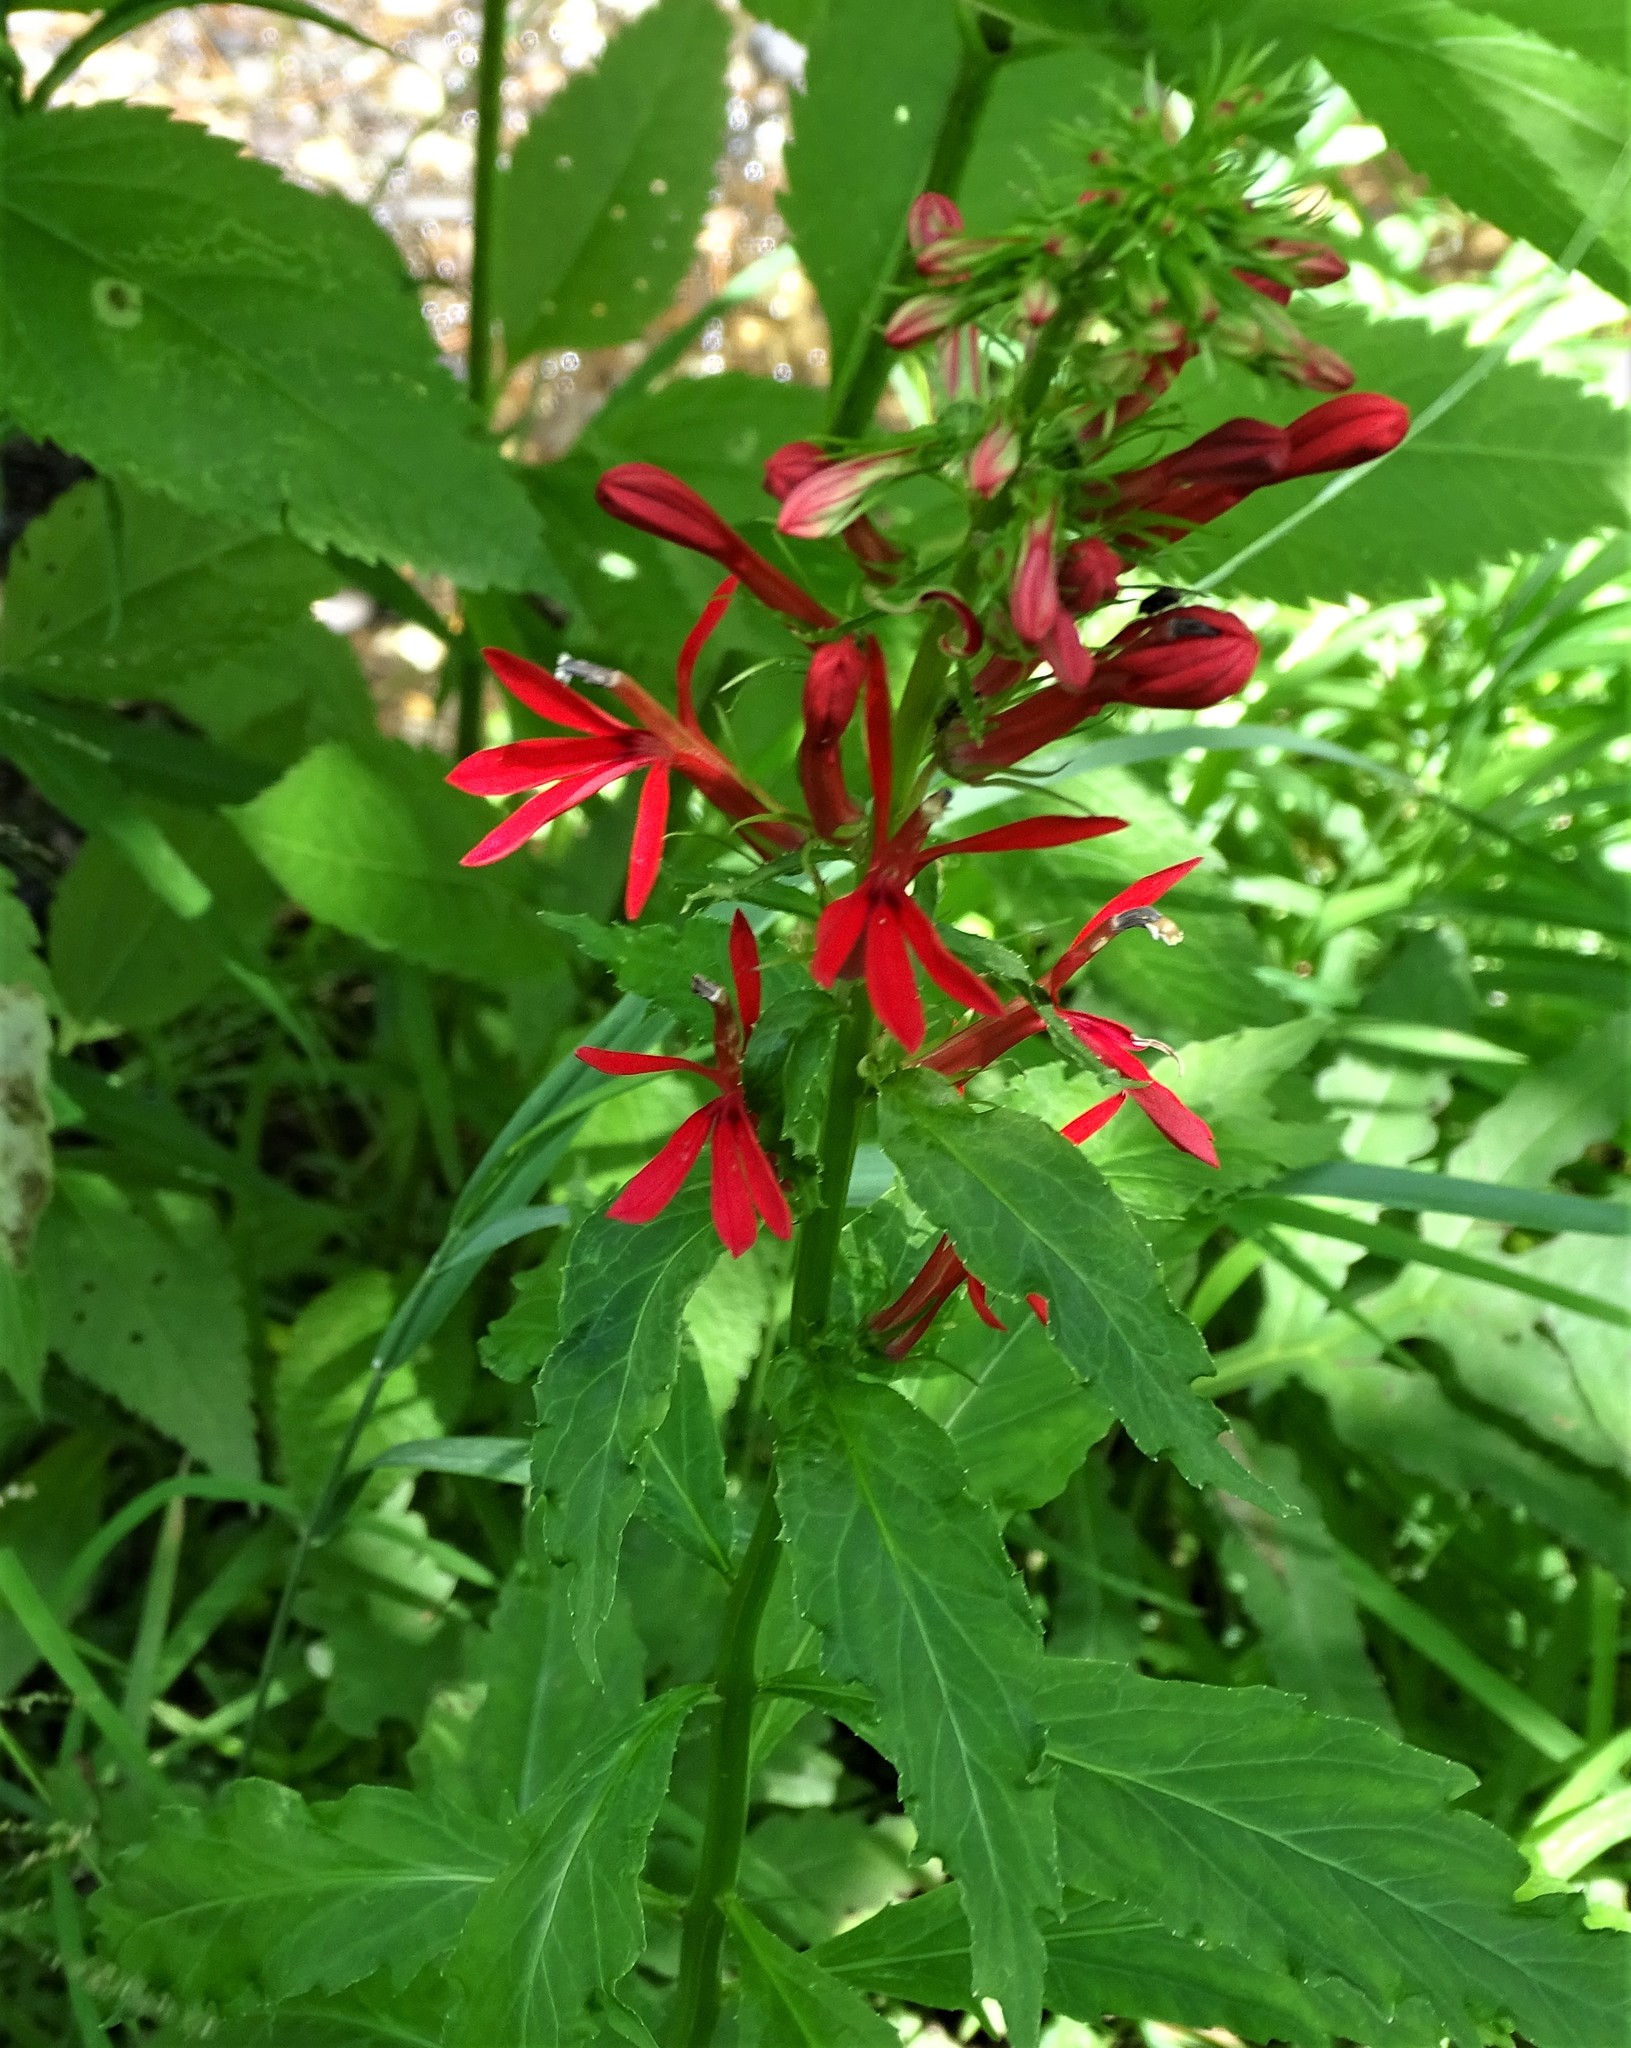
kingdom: Plantae
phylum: Tracheophyta
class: Magnoliopsida
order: Asterales
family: Campanulaceae
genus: Lobelia
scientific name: Lobelia cardinalis
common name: Cardinal flower
